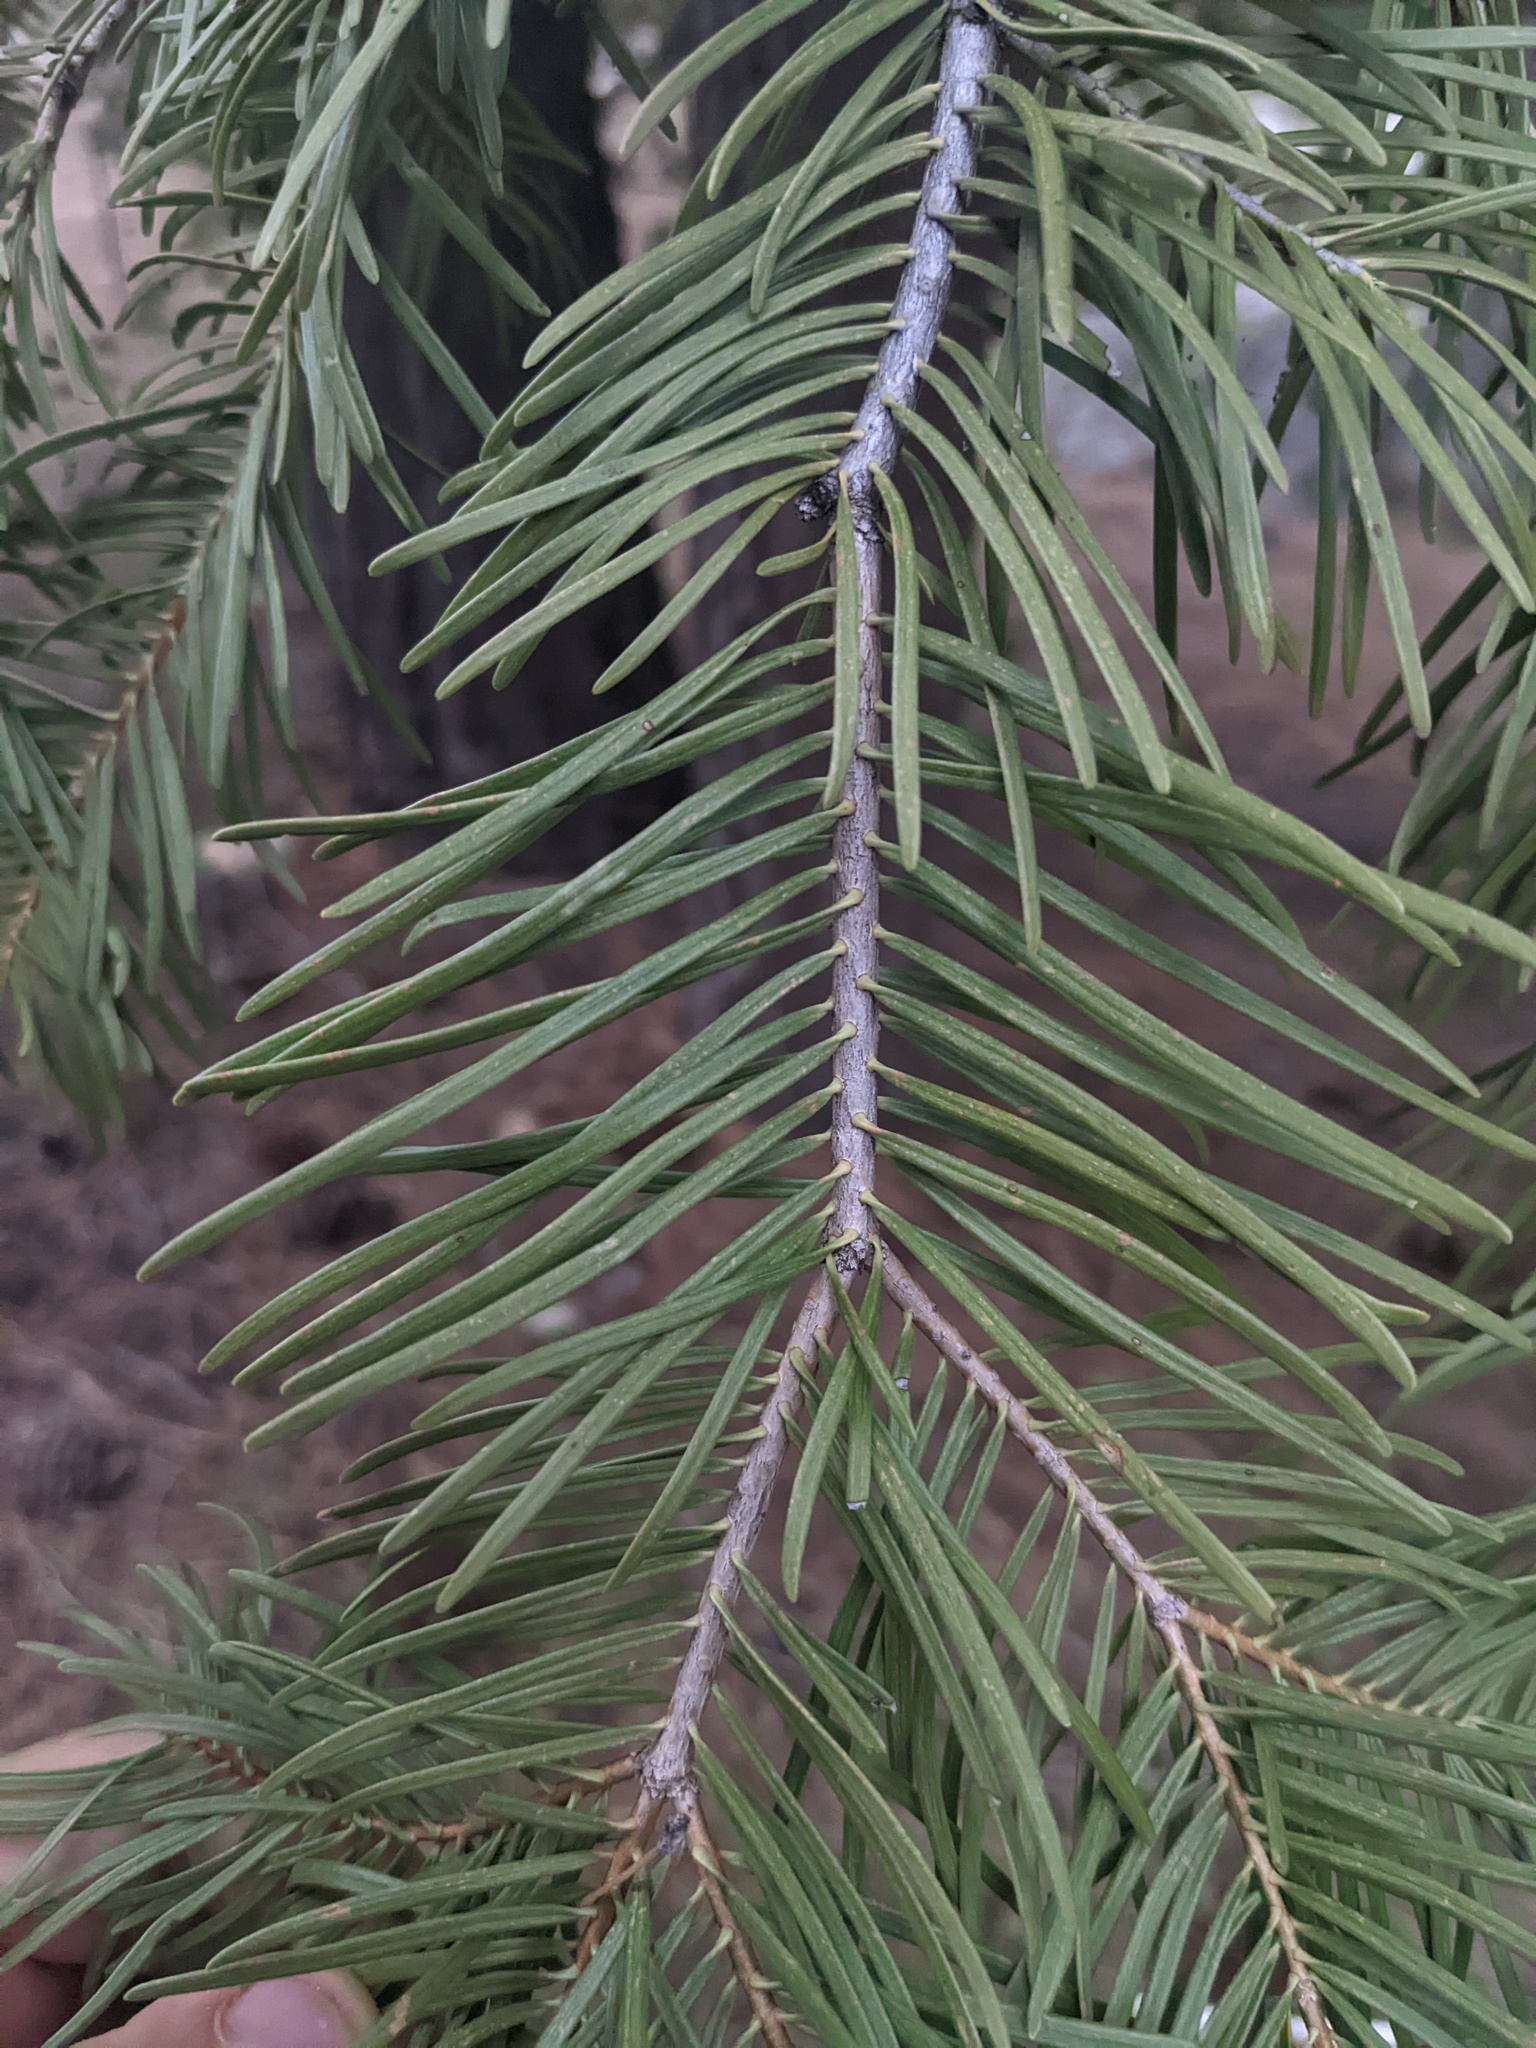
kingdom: Plantae
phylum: Tracheophyta
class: Pinopsida
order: Pinales
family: Pinaceae
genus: Abies
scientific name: Abies concolor
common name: Colorado fir
